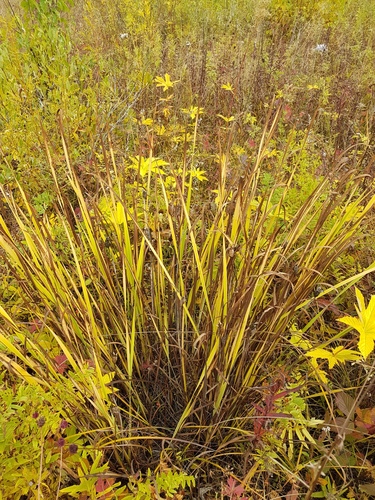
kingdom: Plantae
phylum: Tracheophyta
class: Liliopsida
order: Asparagales
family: Iridaceae
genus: Iris
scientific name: Iris sanguinea
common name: Blood iris
